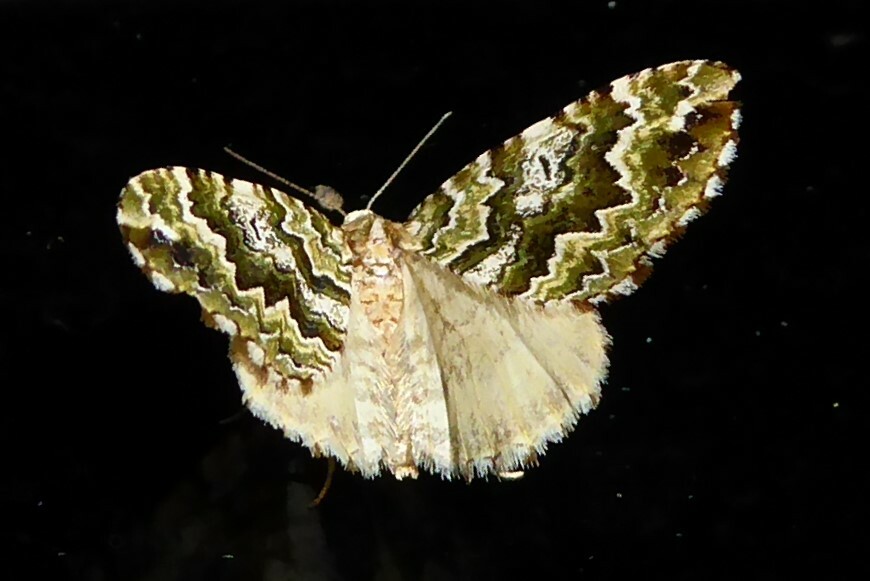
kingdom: Animalia
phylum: Arthropoda
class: Insecta
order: Lepidoptera
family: Geometridae
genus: Asaphodes
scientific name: Asaphodes beata
